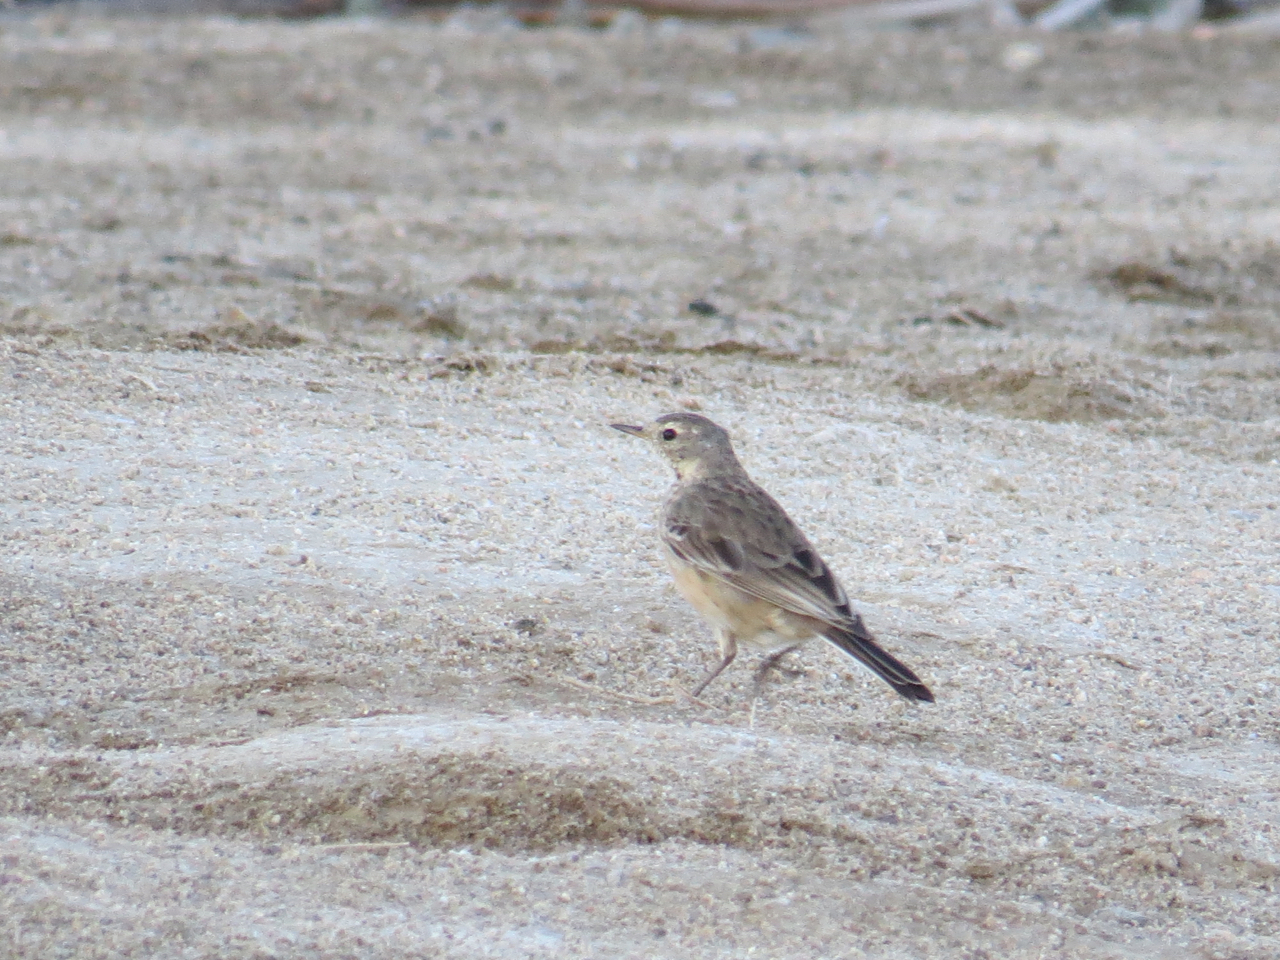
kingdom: Animalia
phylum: Chordata
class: Aves
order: Passeriformes
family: Motacillidae
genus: Anthus
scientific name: Anthus rubescens
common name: Buff-bellied pipit
